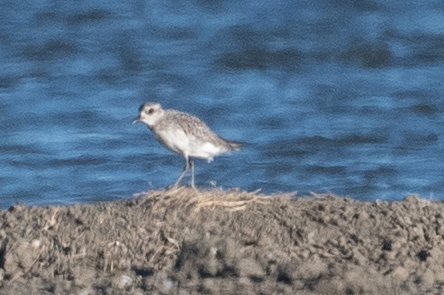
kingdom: Animalia
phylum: Chordata
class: Aves
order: Charadriiformes
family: Charadriidae
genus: Pluvialis
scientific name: Pluvialis squatarola
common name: Grey plover
